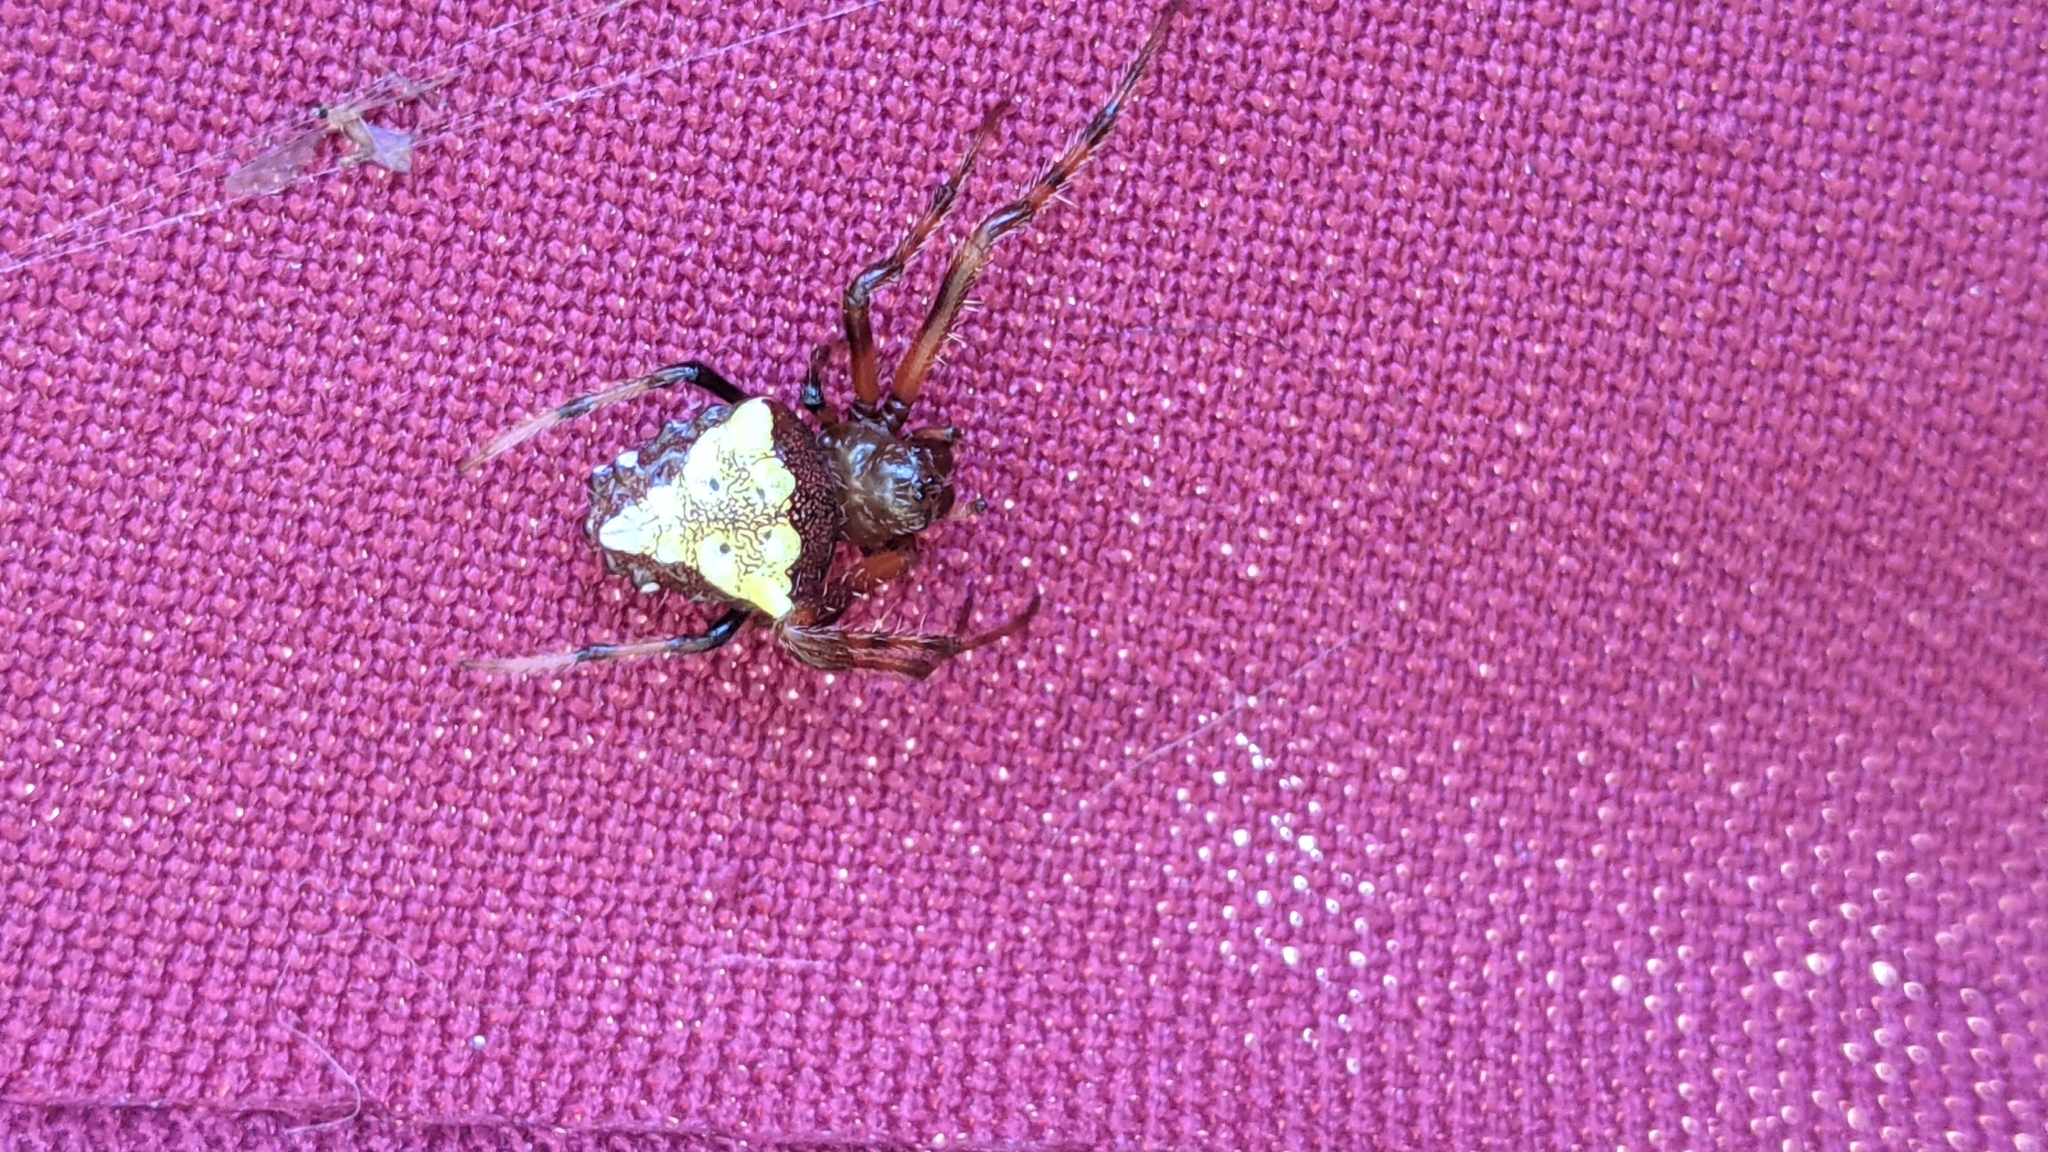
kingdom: Animalia
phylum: Arthropoda
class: Arachnida
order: Araneae
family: Araneidae
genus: Verrucosa
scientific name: Verrucosa arenata
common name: Orb weavers
